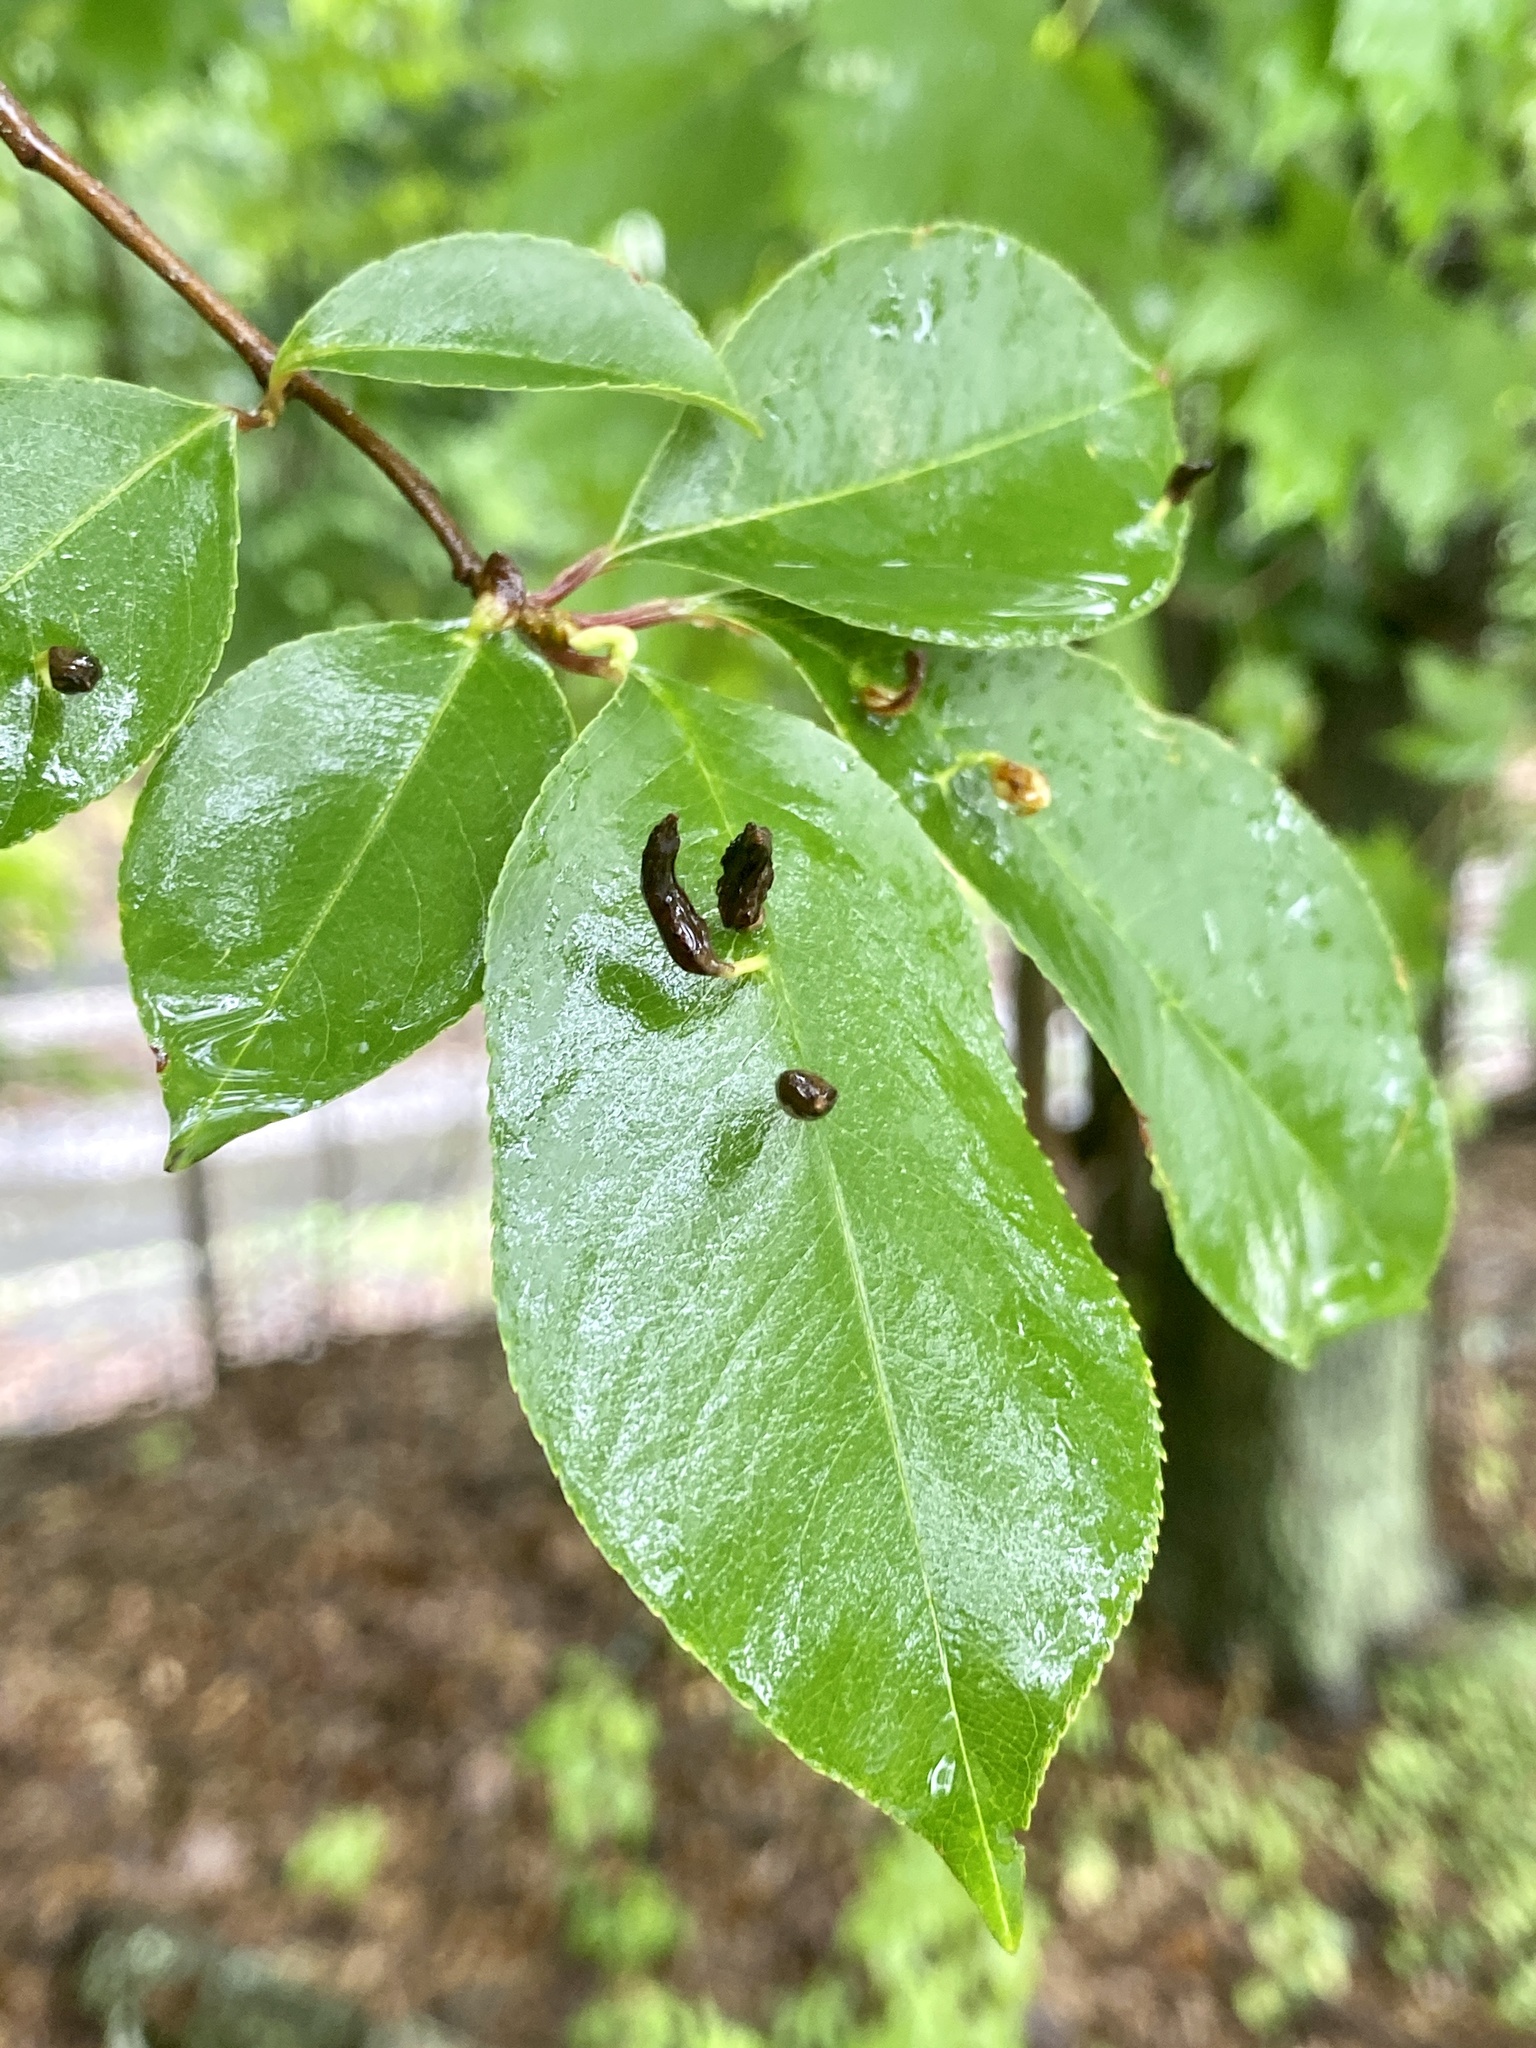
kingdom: Animalia
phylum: Arthropoda
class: Arachnida
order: Trombidiformes
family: Eriophyidae
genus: Eriophyes
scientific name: Eriophyes
